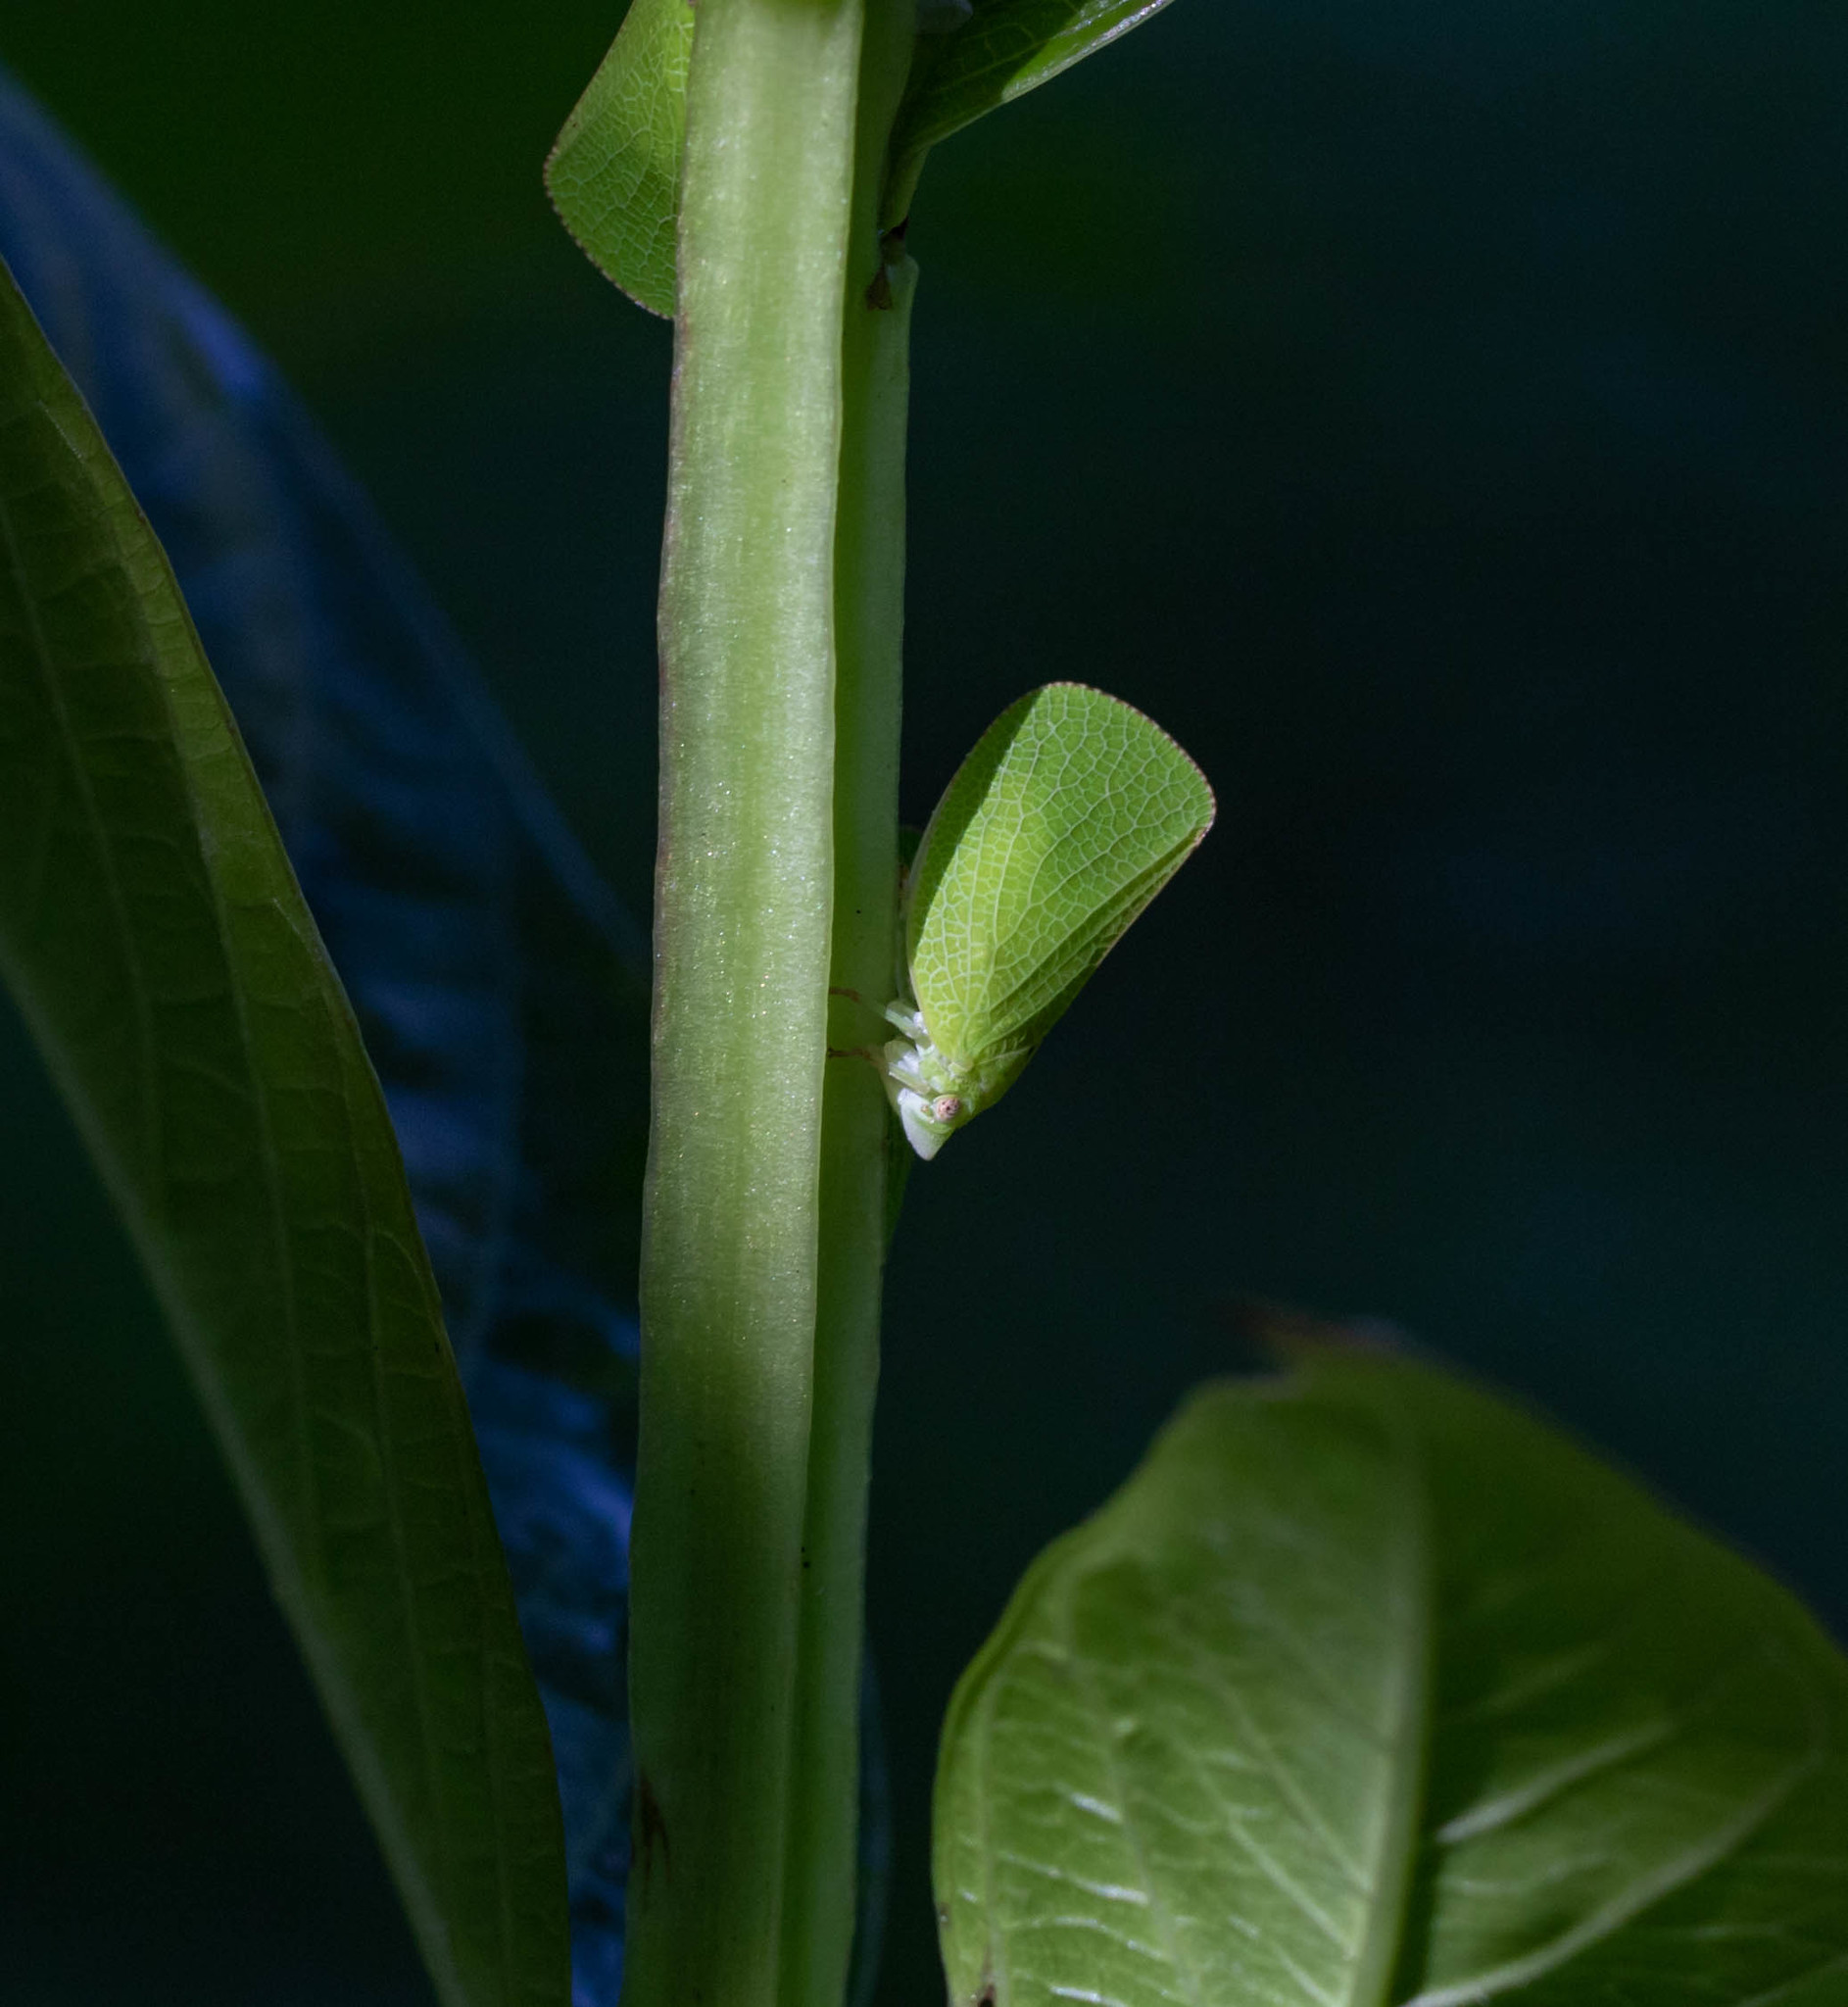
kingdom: Animalia
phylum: Arthropoda
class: Insecta
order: Hemiptera
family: Acanaloniidae
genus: Acanalonia
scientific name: Acanalonia conica
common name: Green cone-headed planthopper
